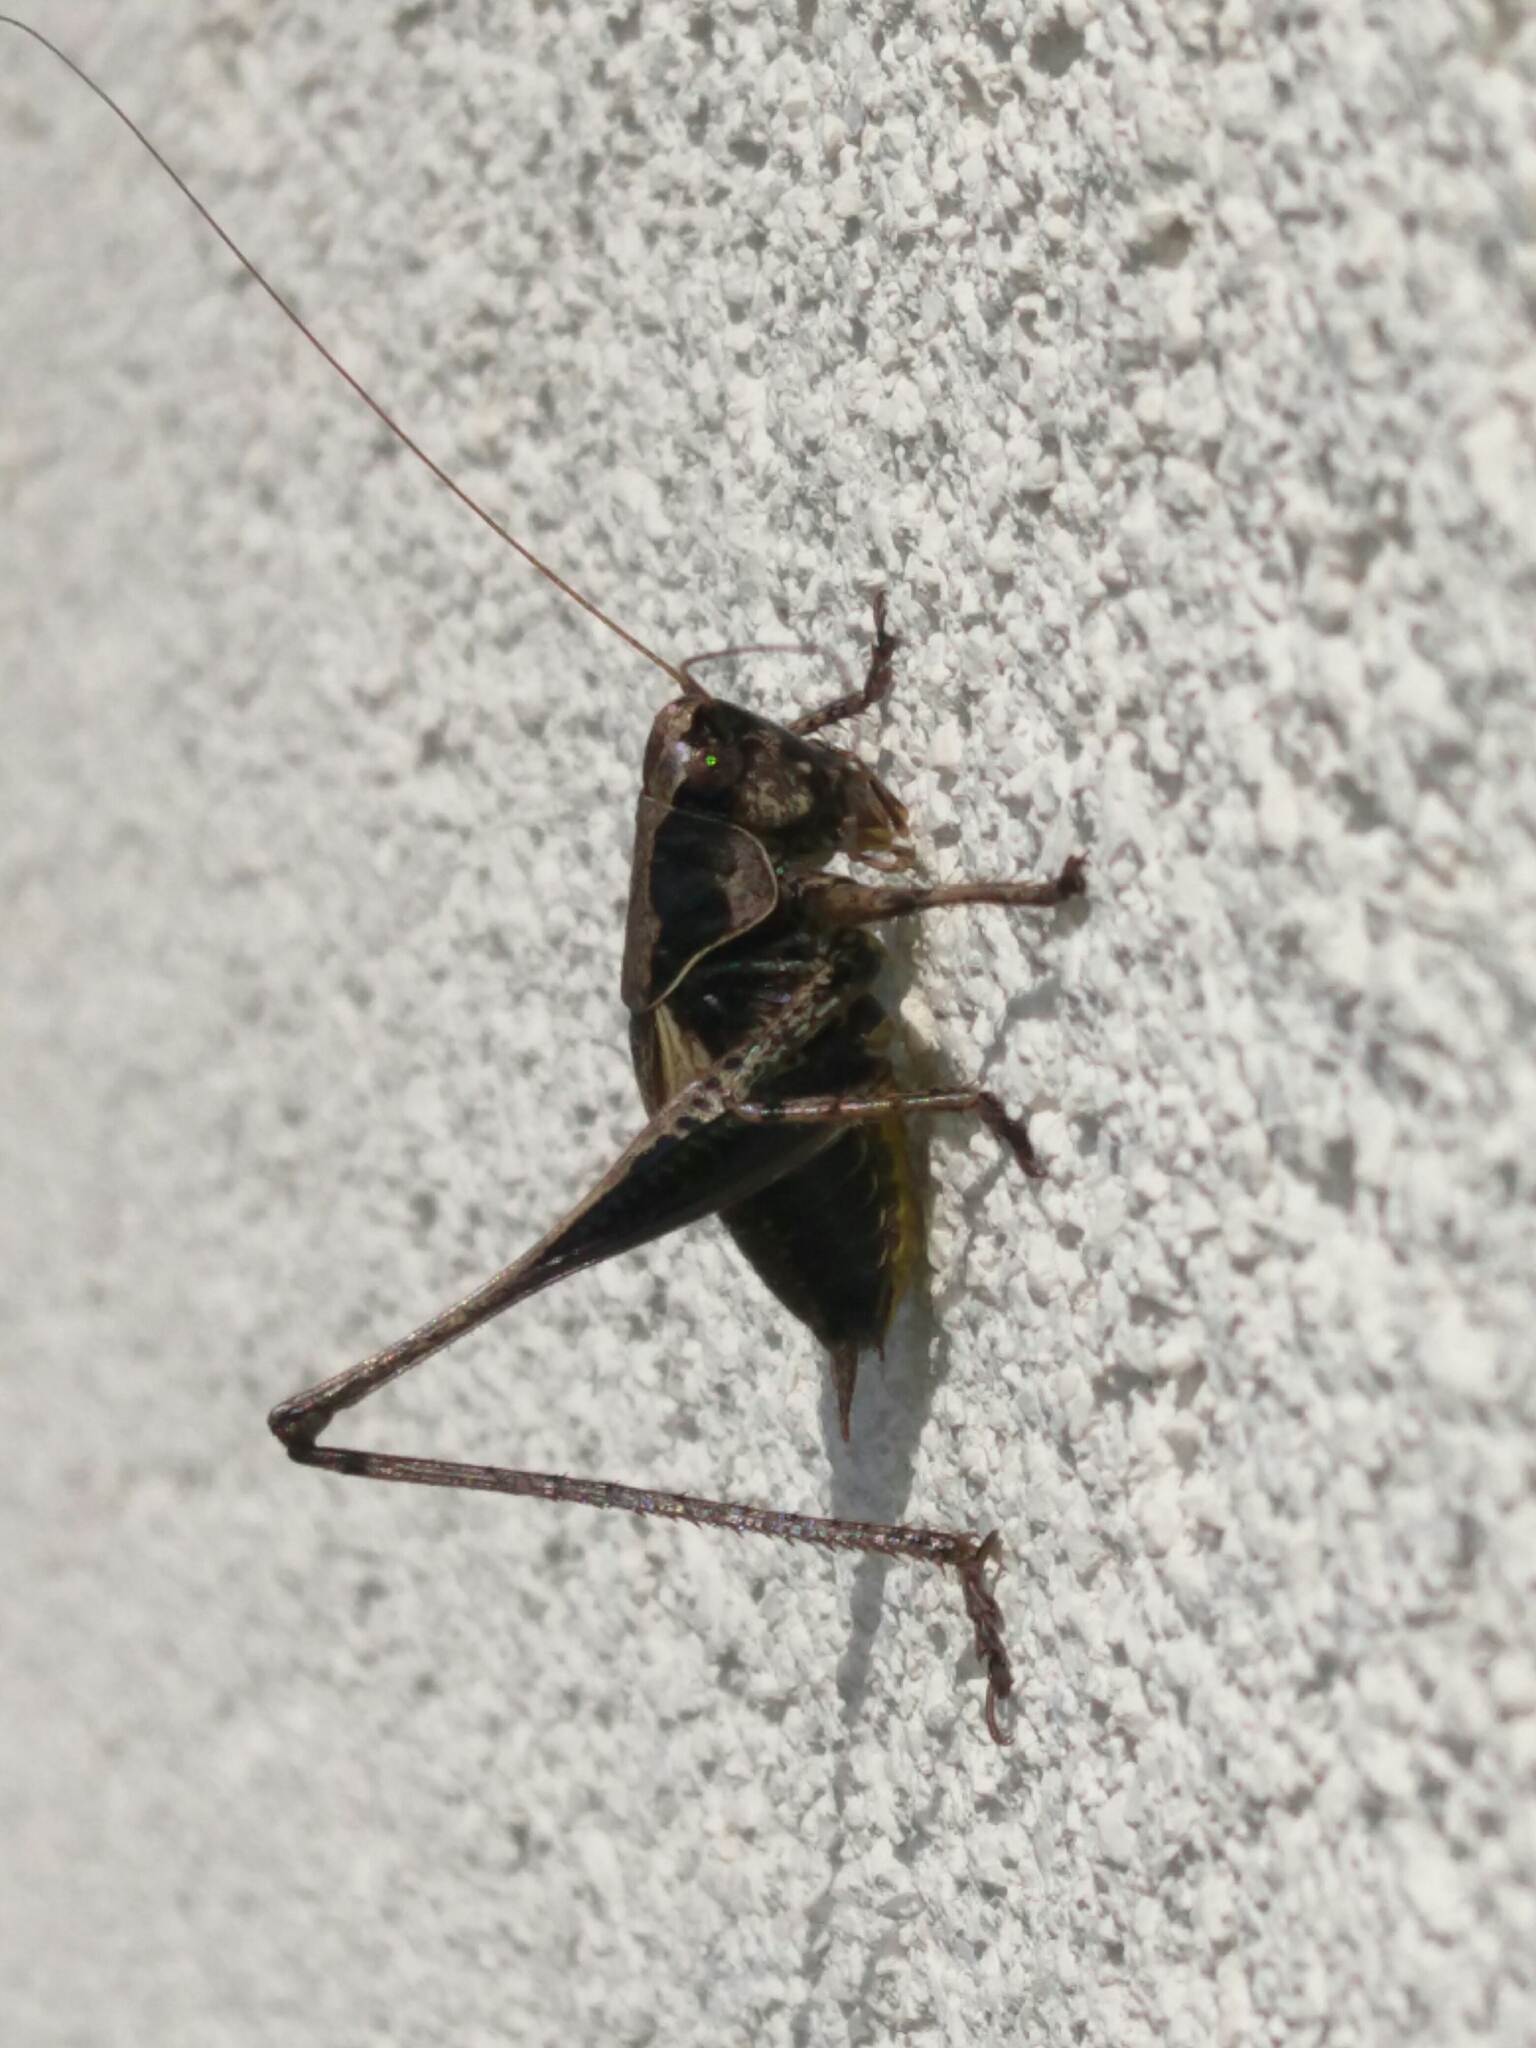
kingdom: Animalia
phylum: Arthropoda
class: Insecta
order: Orthoptera
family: Tettigoniidae
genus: Pholidoptera
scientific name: Pholidoptera griseoaptera
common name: Dark bush-cricket
